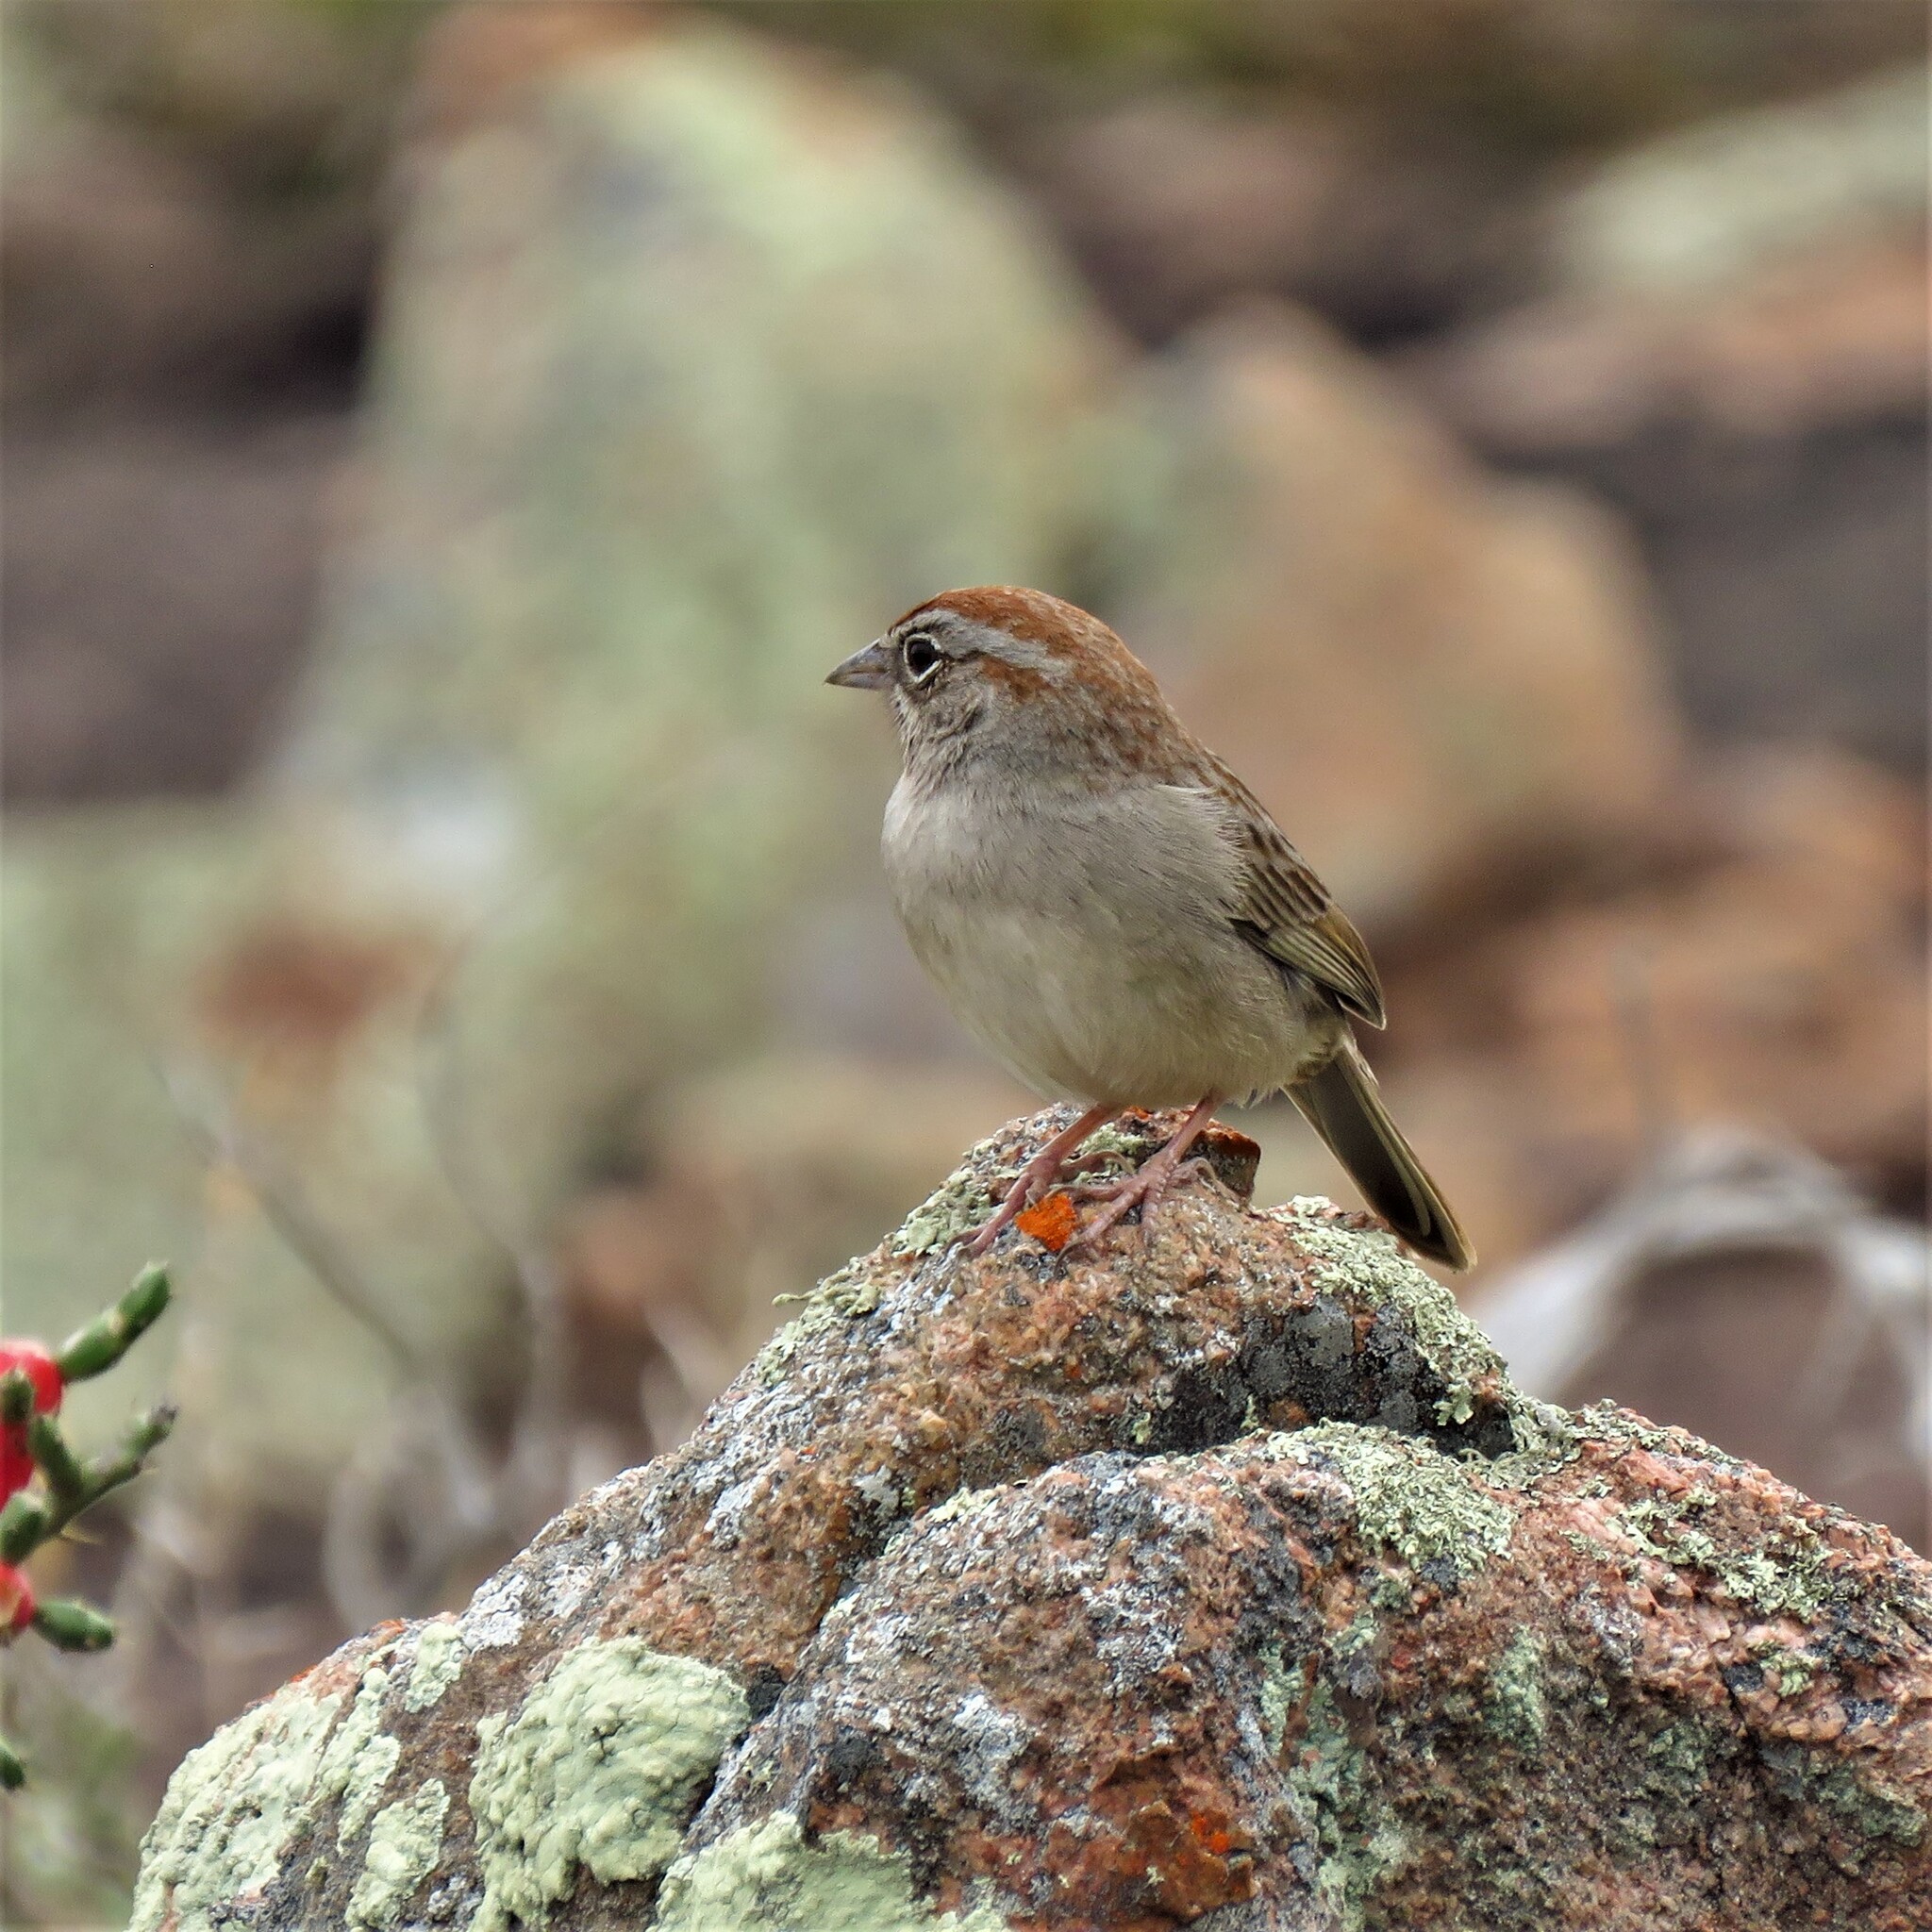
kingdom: Animalia
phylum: Chordata
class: Aves
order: Passeriformes
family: Passerellidae
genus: Aimophila
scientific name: Aimophila ruficeps
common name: Rufous-crowned sparrow
